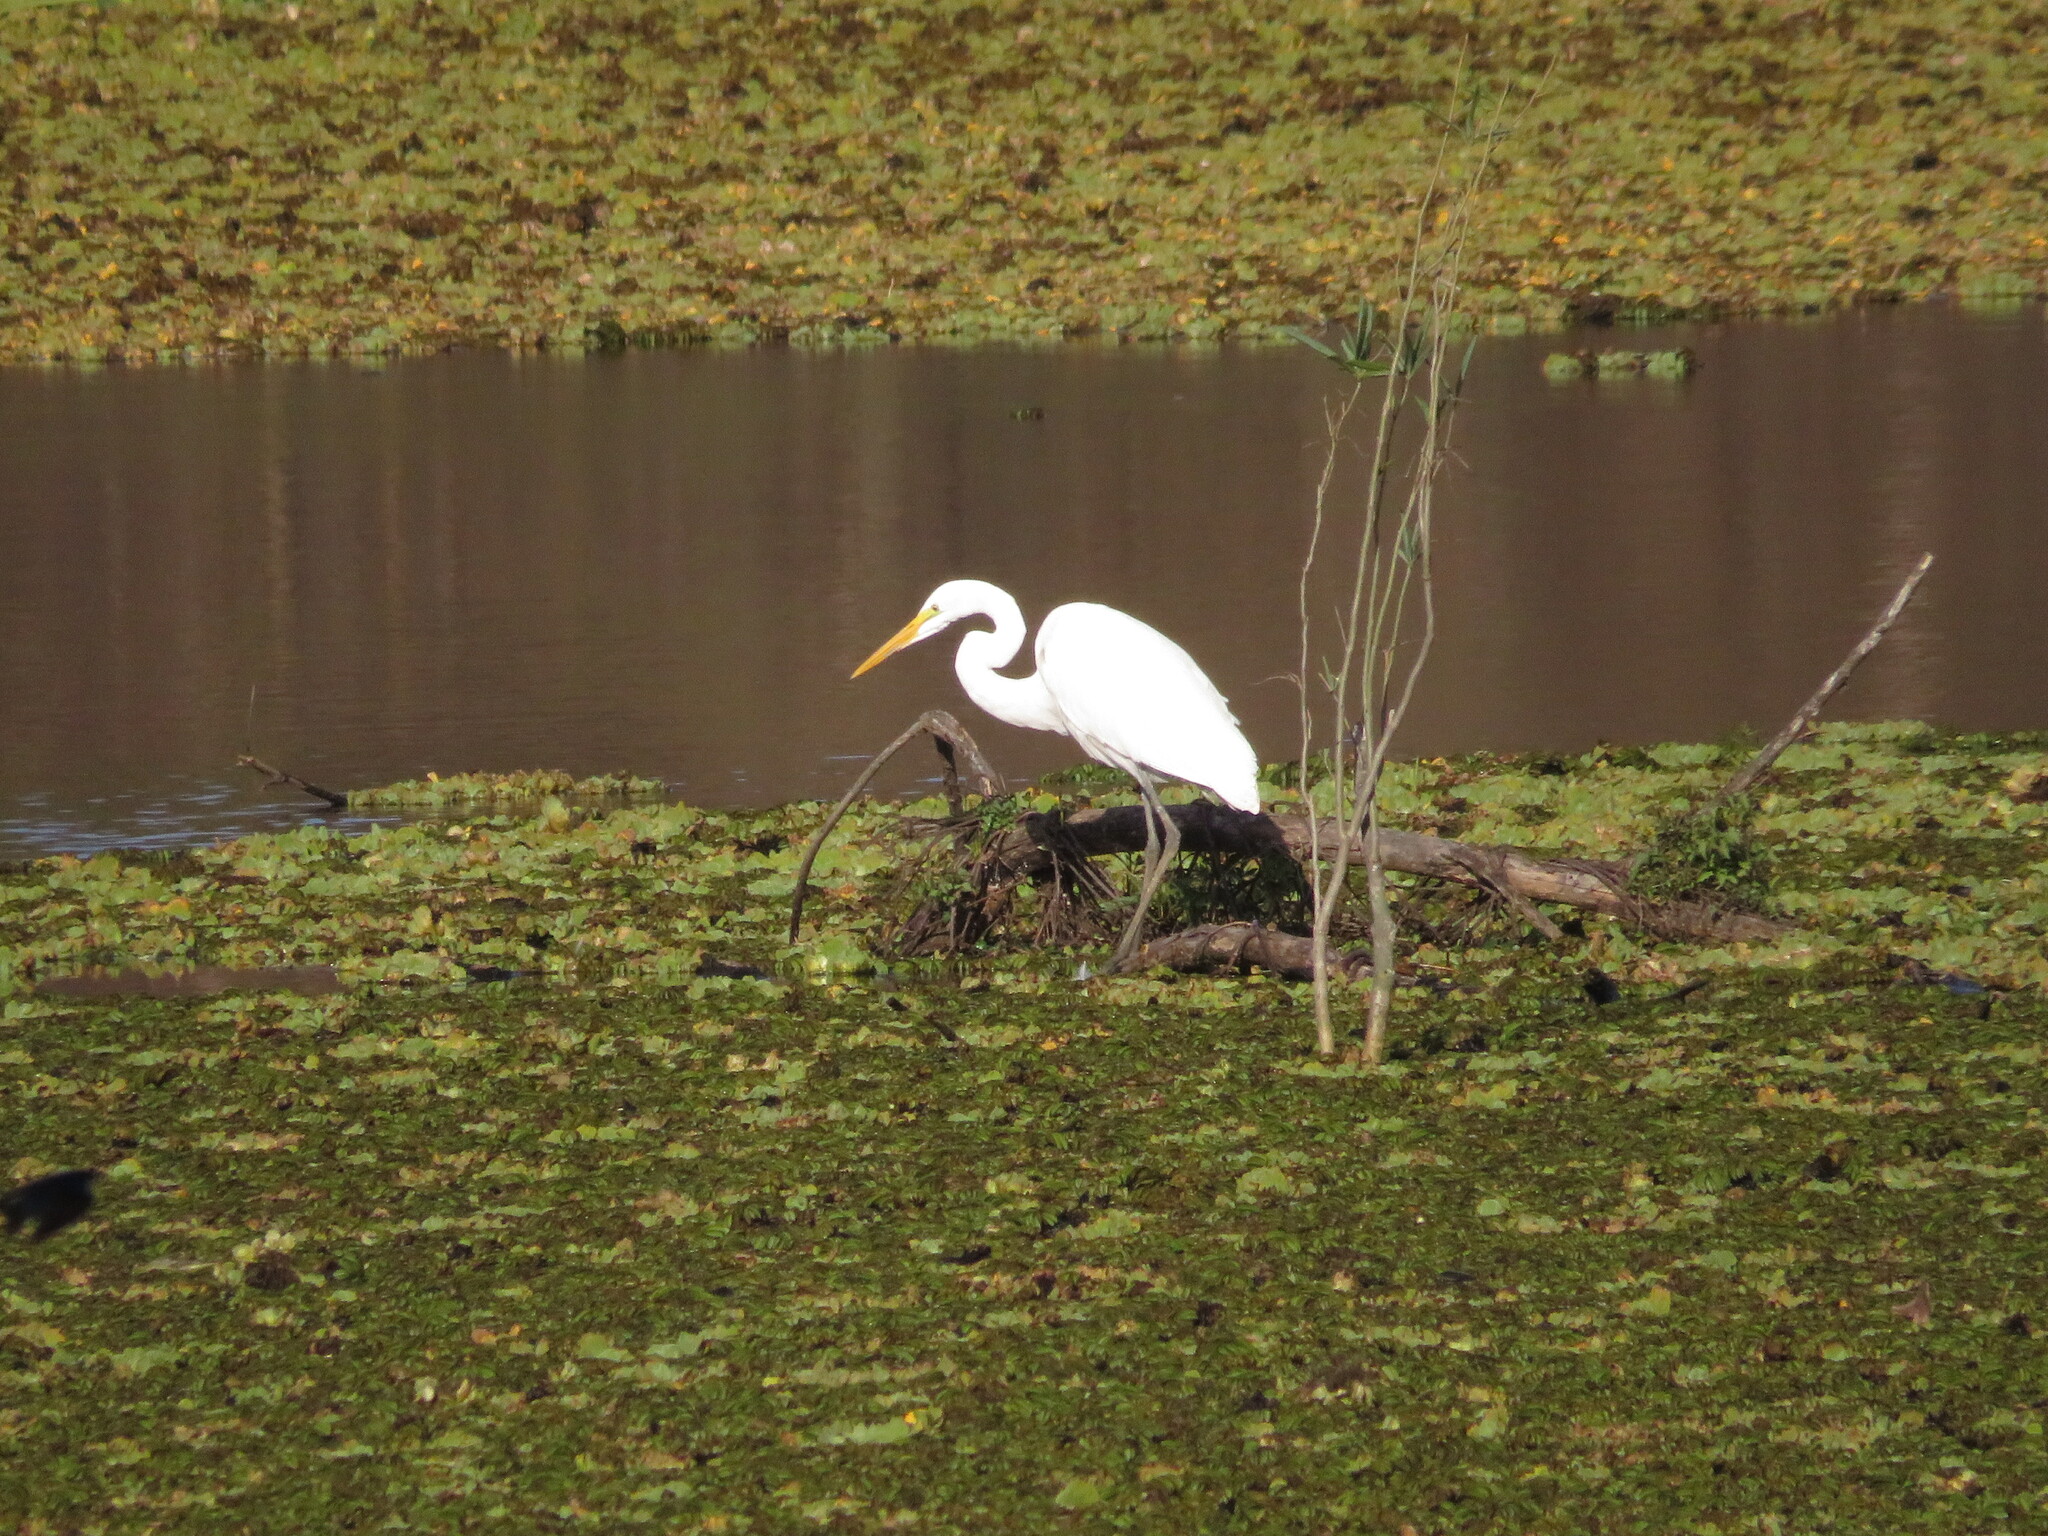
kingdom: Animalia
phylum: Chordata
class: Aves
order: Pelecaniformes
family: Ardeidae
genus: Ardea
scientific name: Ardea alba
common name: Great egret
